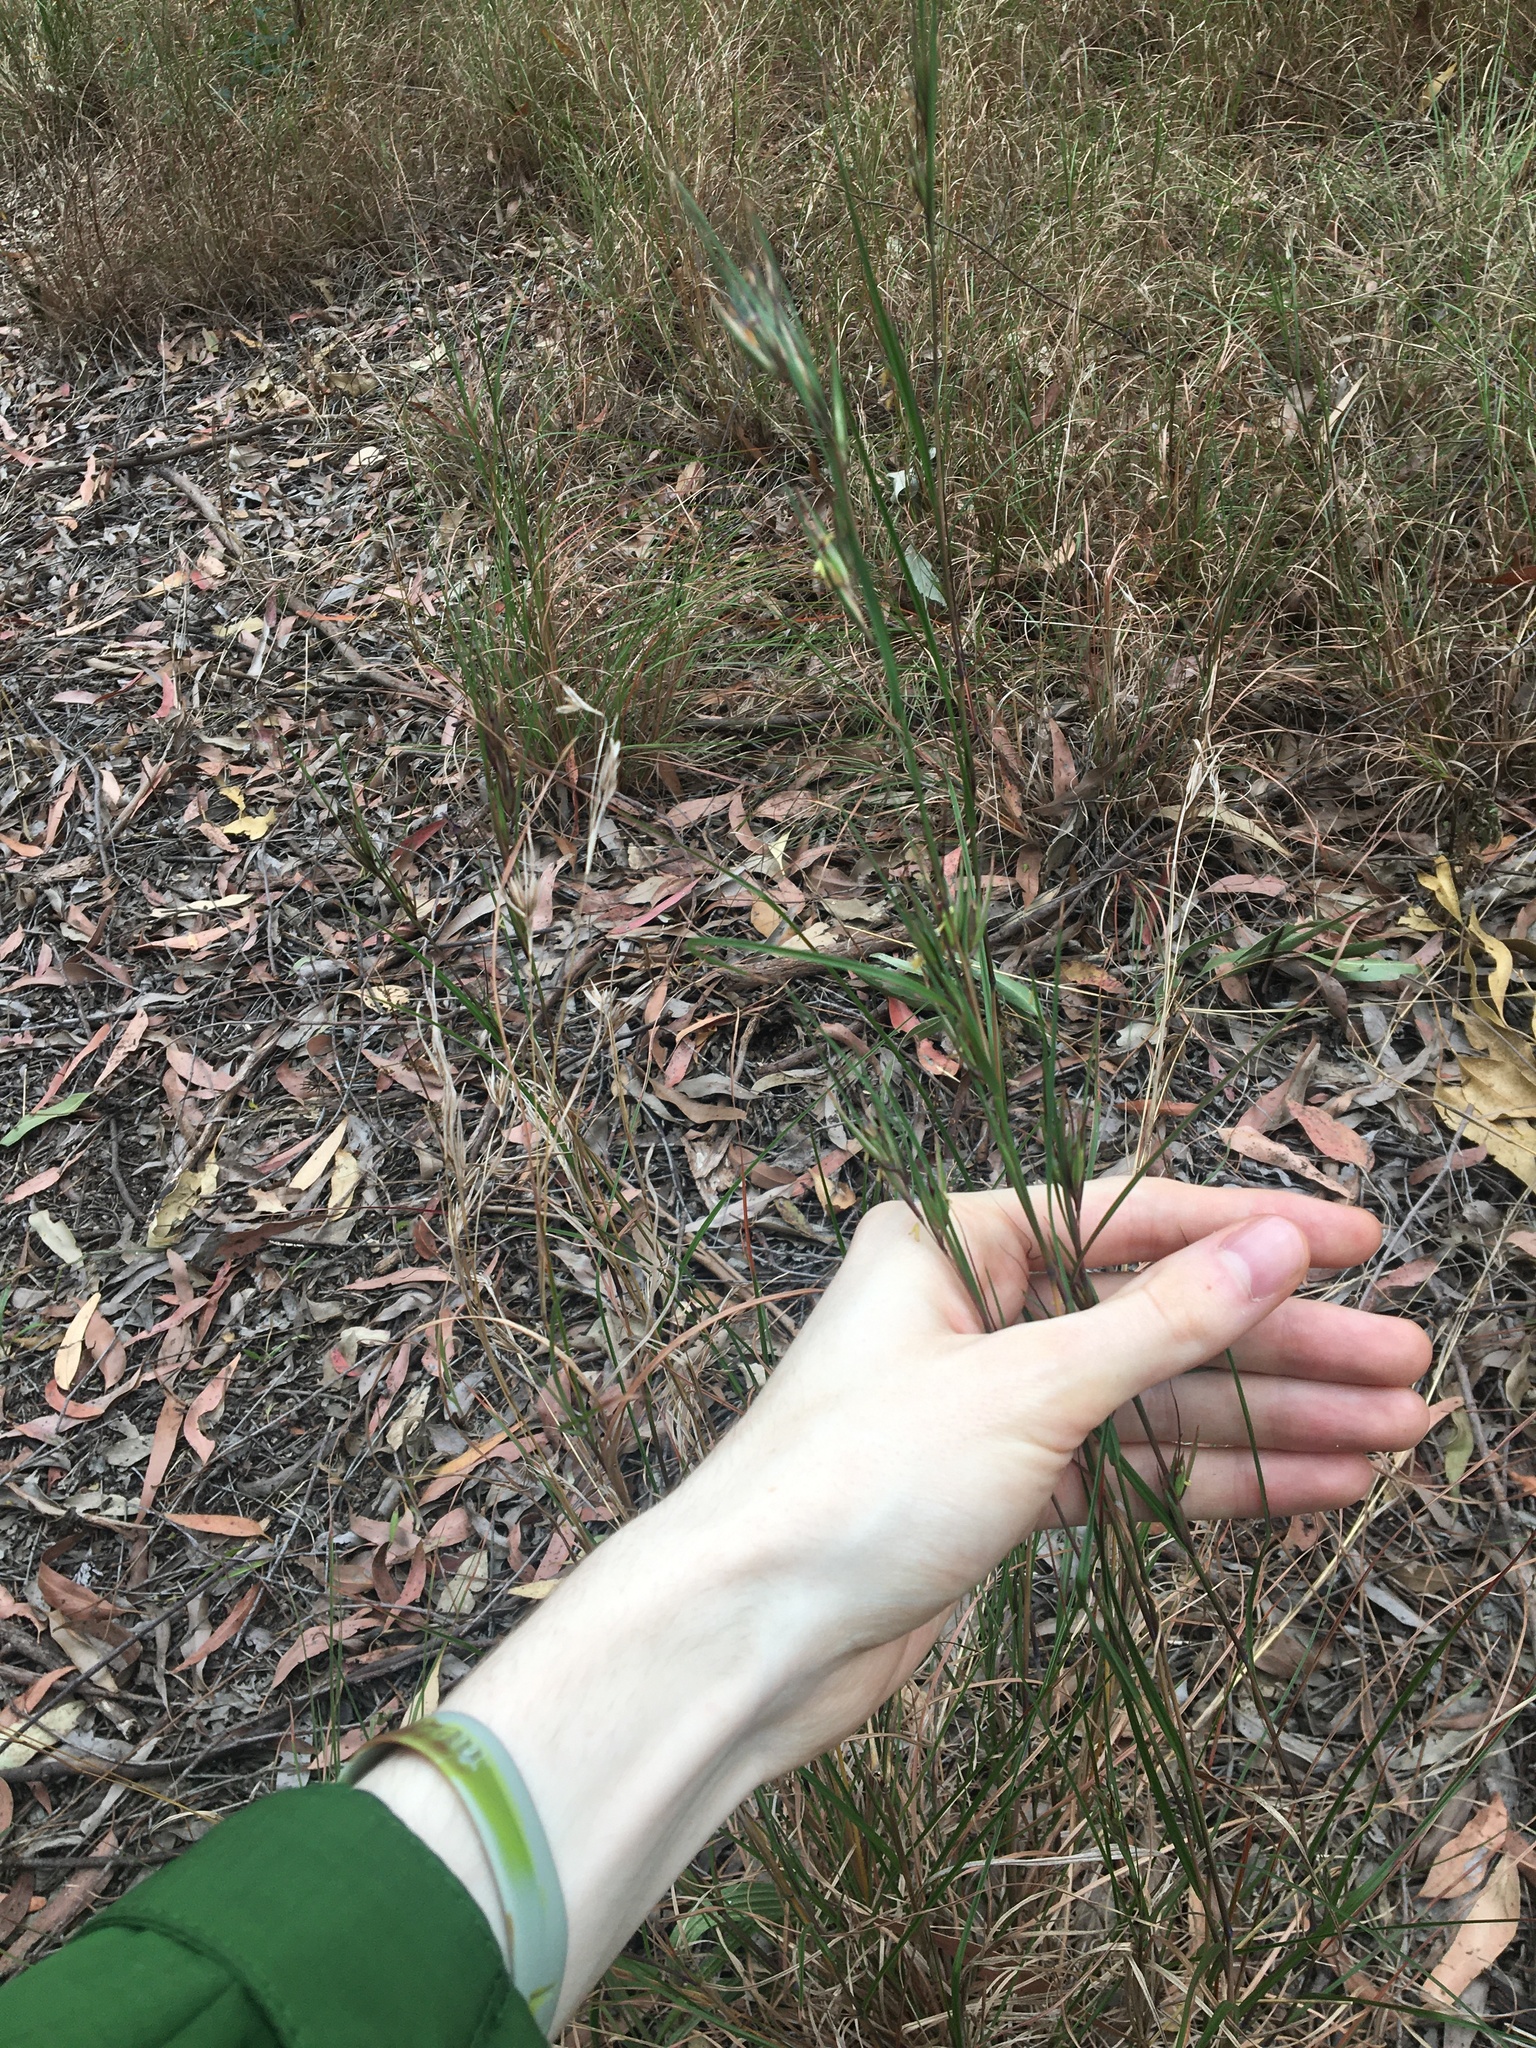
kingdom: Plantae
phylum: Tracheophyta
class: Liliopsida
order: Poales
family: Poaceae
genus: Themeda
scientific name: Themeda triandra
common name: Kangaroo grass
